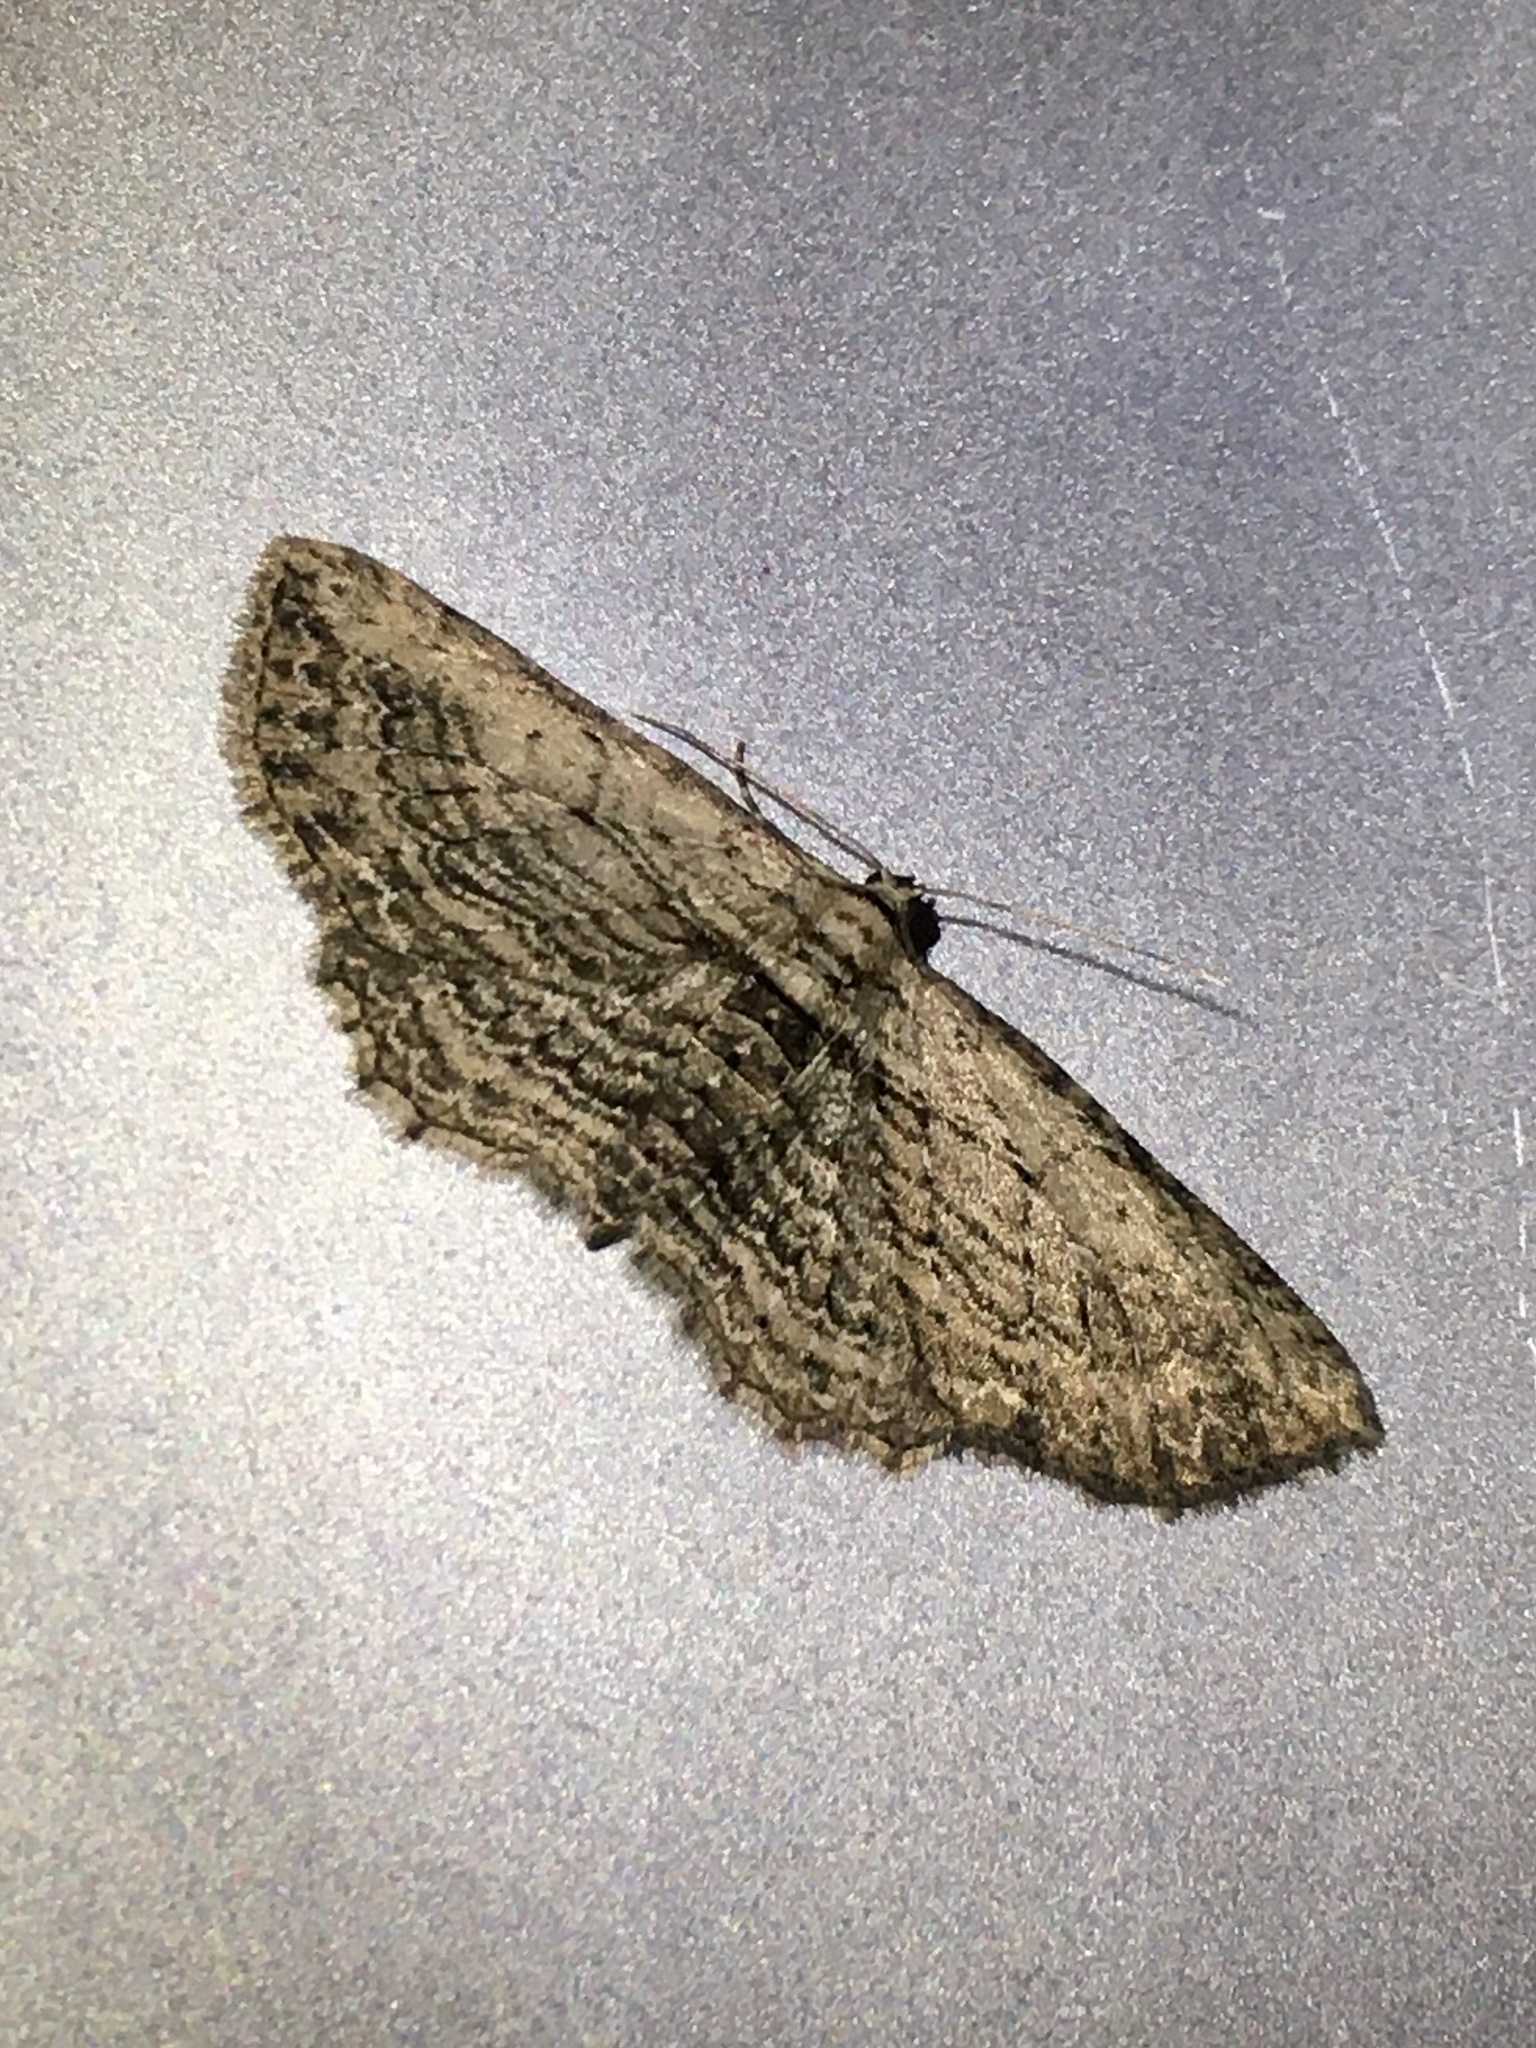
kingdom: Animalia
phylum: Arthropoda
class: Insecta
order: Lepidoptera
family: Geometridae
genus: Horisme
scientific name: Horisme intestinata
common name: Brown bark carpet
